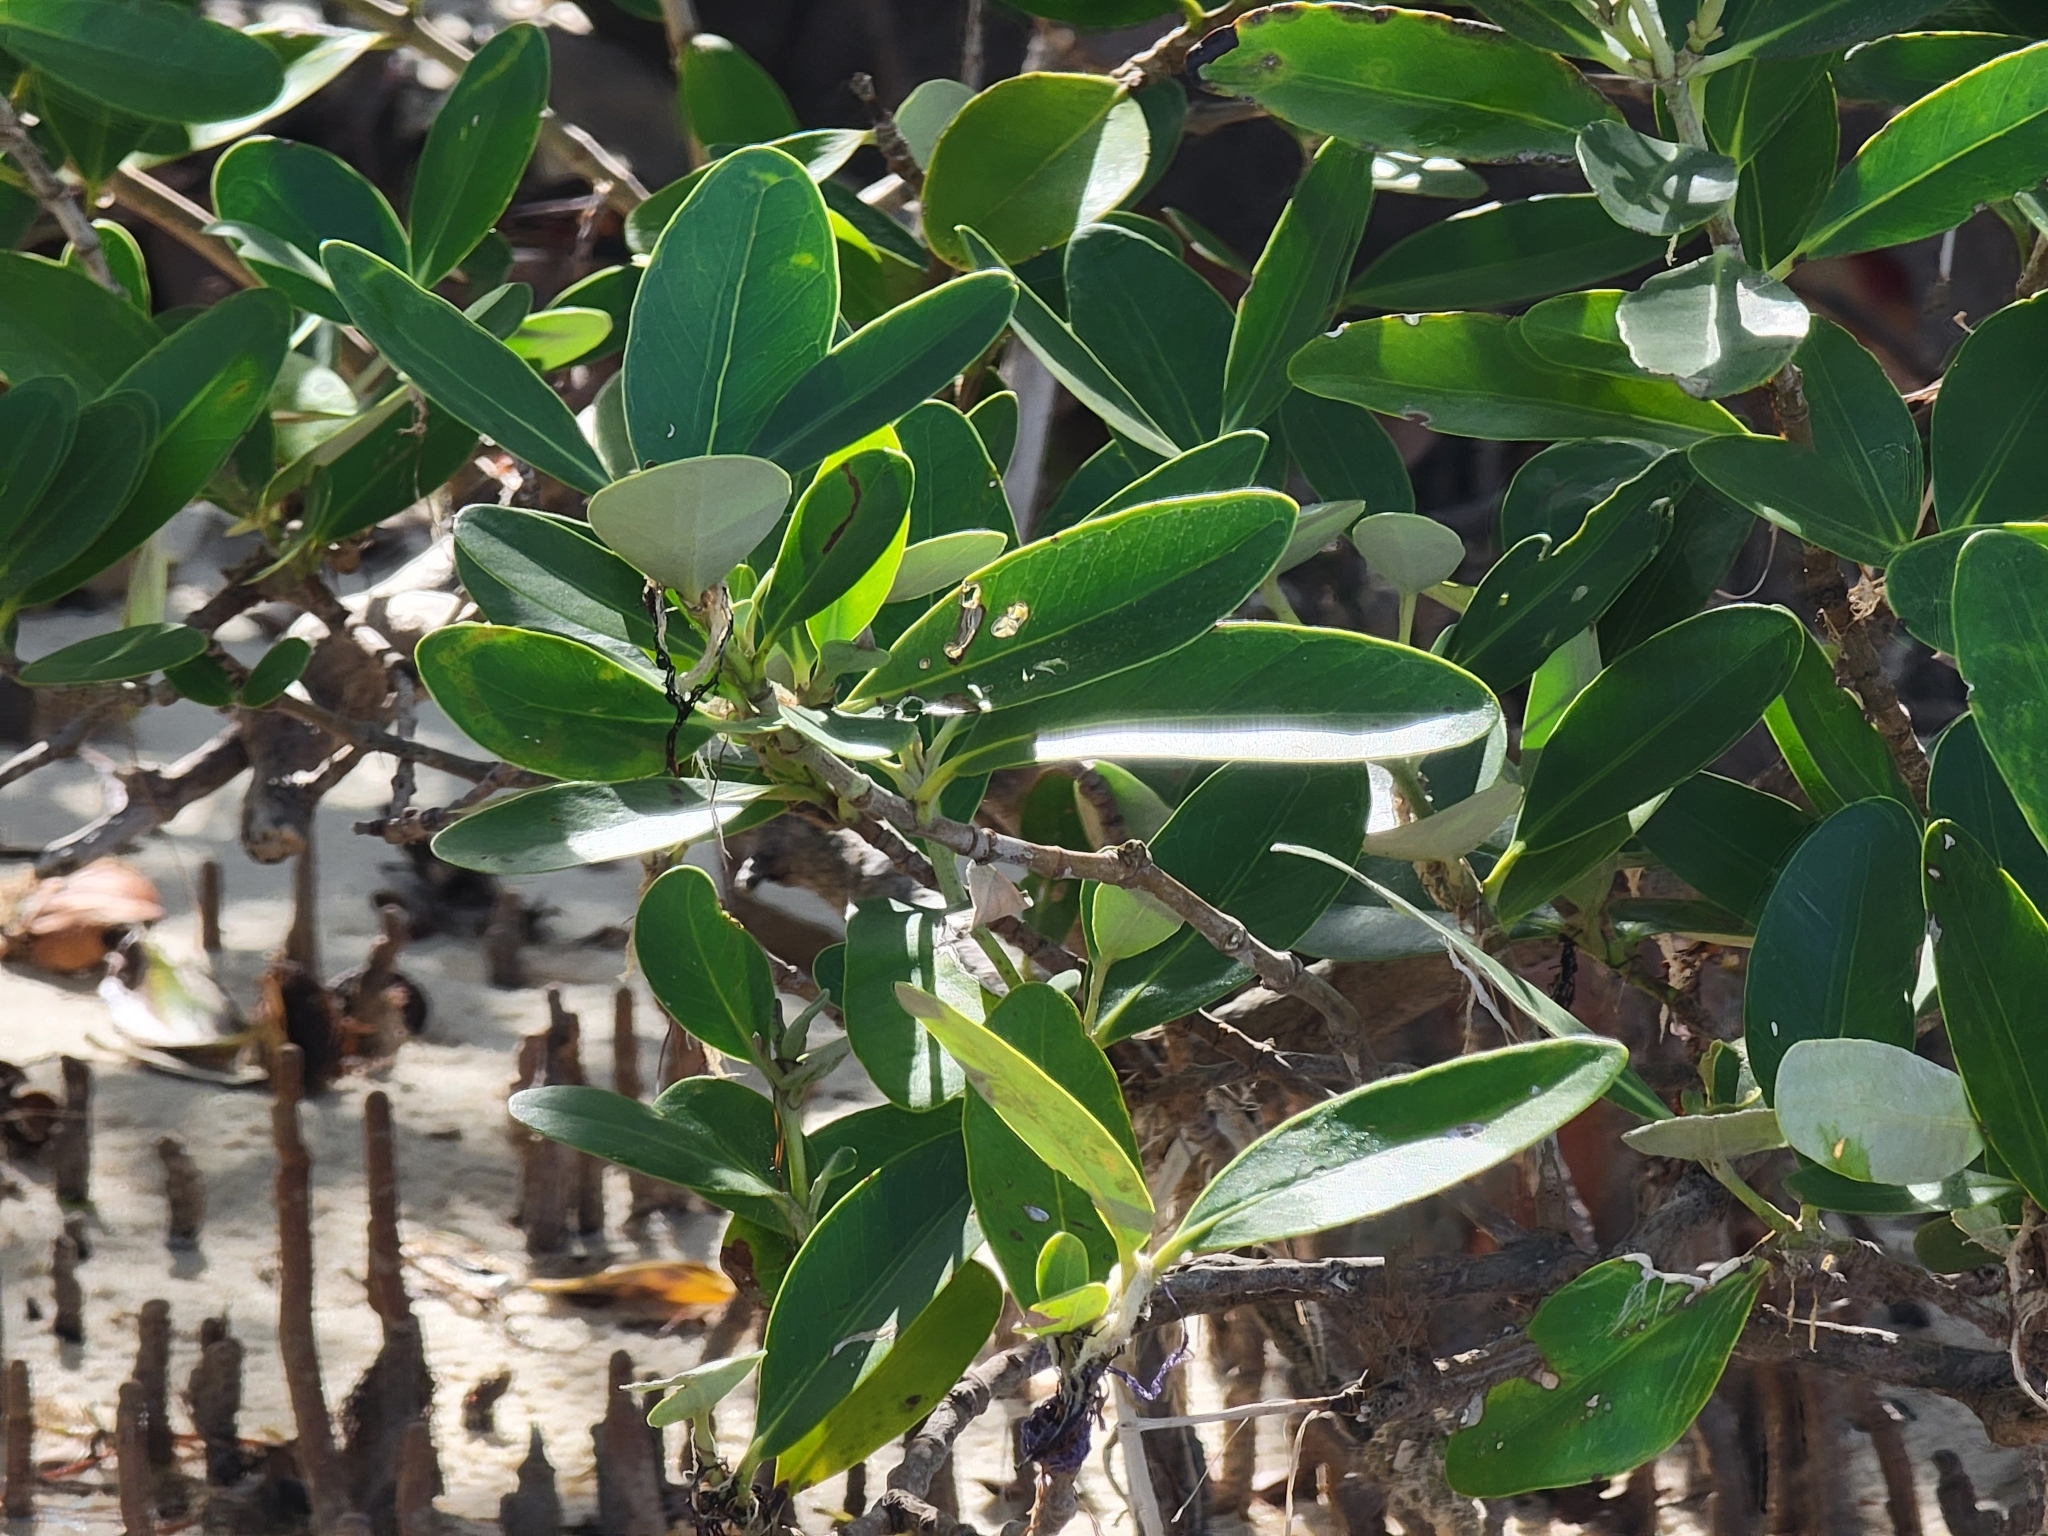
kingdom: Plantae
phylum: Tracheophyta
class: Magnoliopsida
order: Lamiales
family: Acanthaceae
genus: Avicennia
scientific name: Avicennia germinans
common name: Black mangrove
